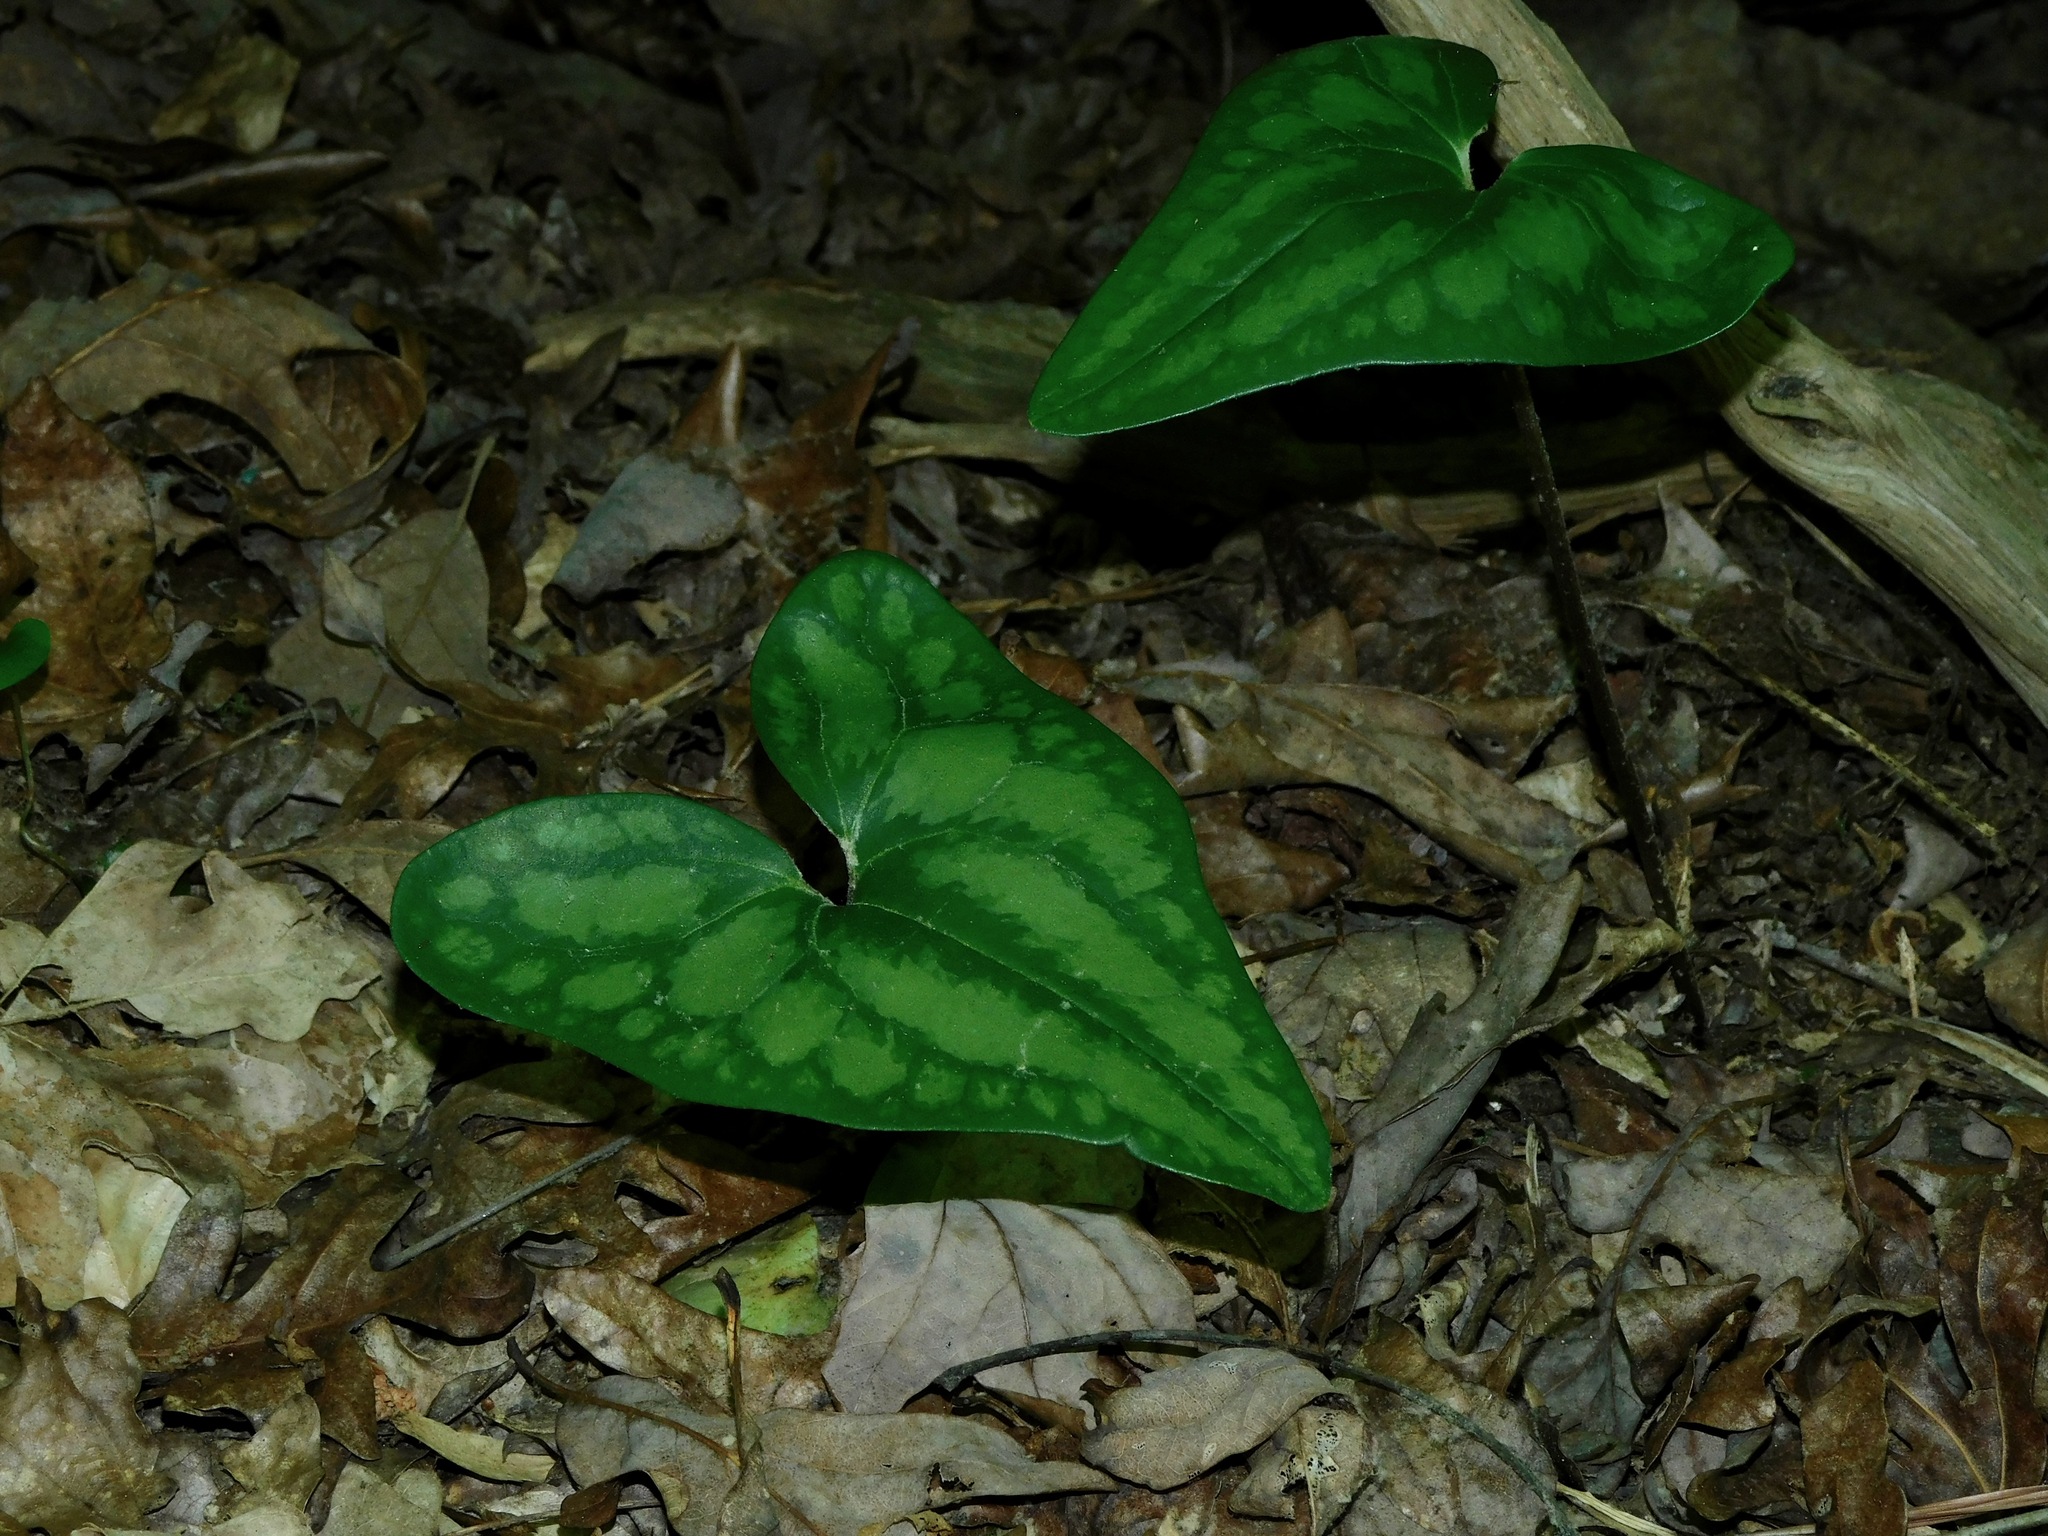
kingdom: Plantae
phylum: Tracheophyta
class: Magnoliopsida
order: Piperales
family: Aristolochiaceae
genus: Hexastylis
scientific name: Hexastylis arifolia
